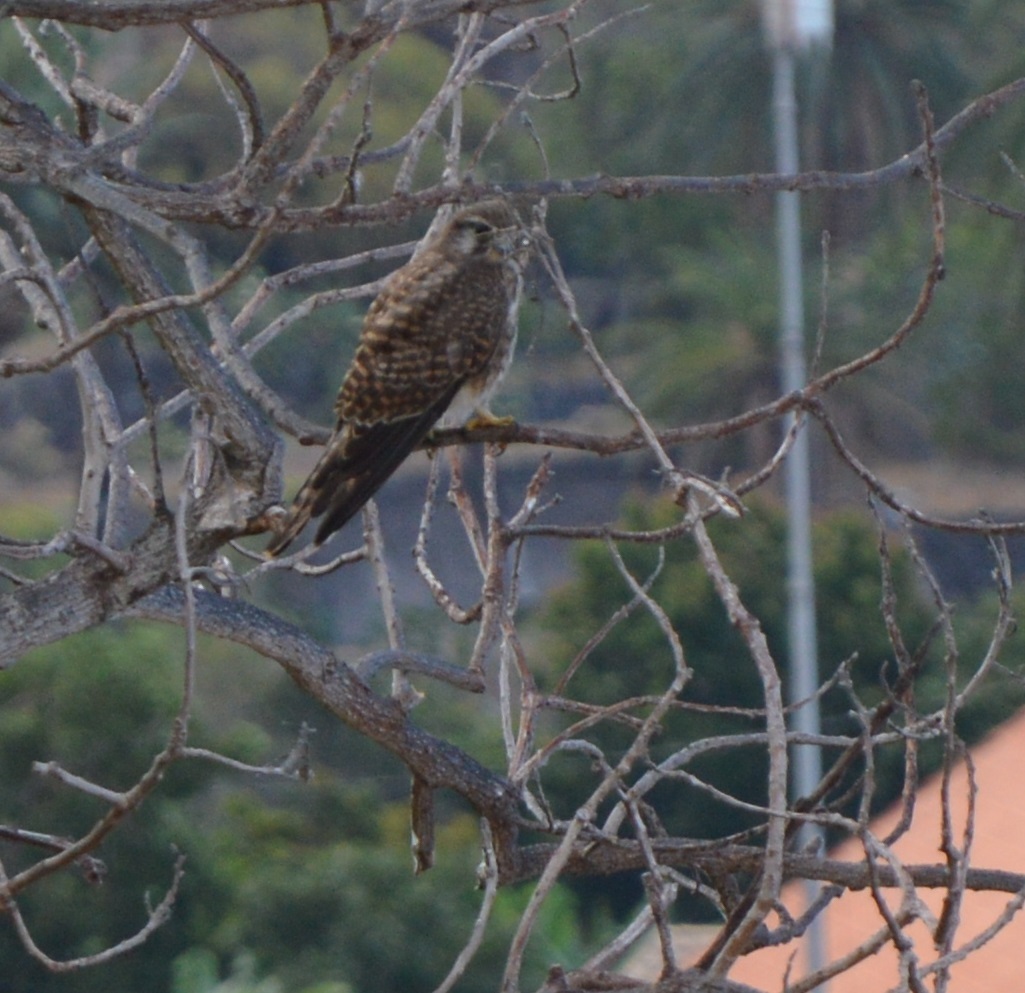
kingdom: Animalia
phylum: Chordata
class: Aves
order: Falconiformes
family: Falconidae
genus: Falco
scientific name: Falco tinnunculus
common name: Common kestrel
